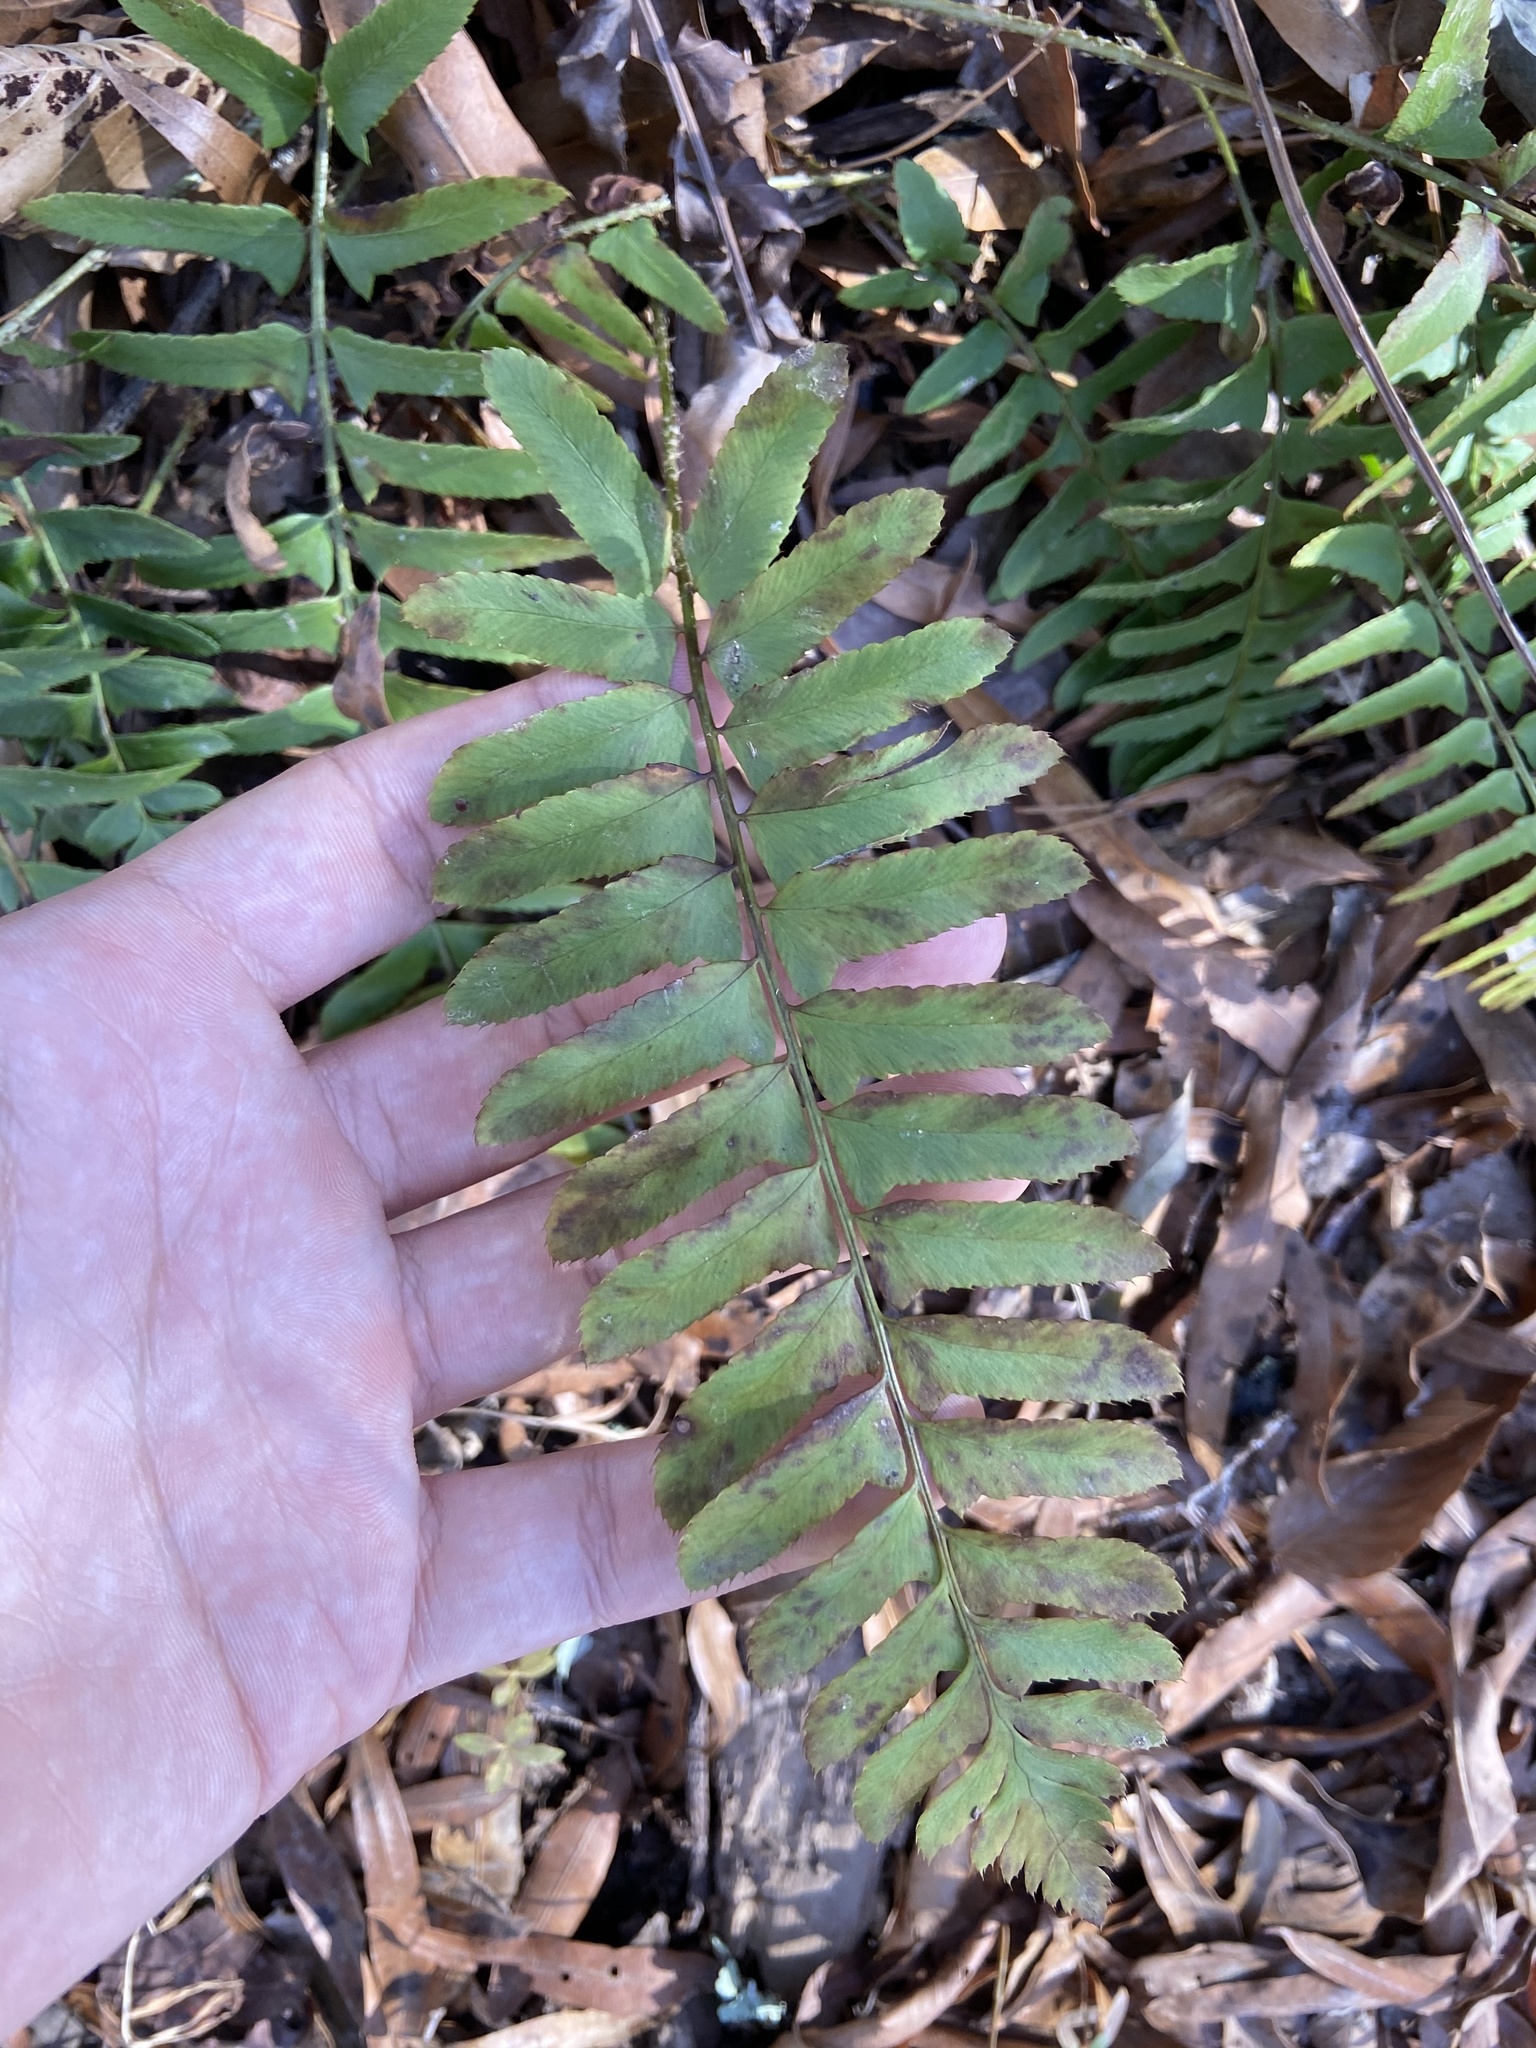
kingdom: Plantae
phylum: Tracheophyta
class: Polypodiopsida
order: Polypodiales
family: Dryopteridaceae
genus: Polystichum
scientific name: Polystichum acrostichoides
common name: Christmas fern
